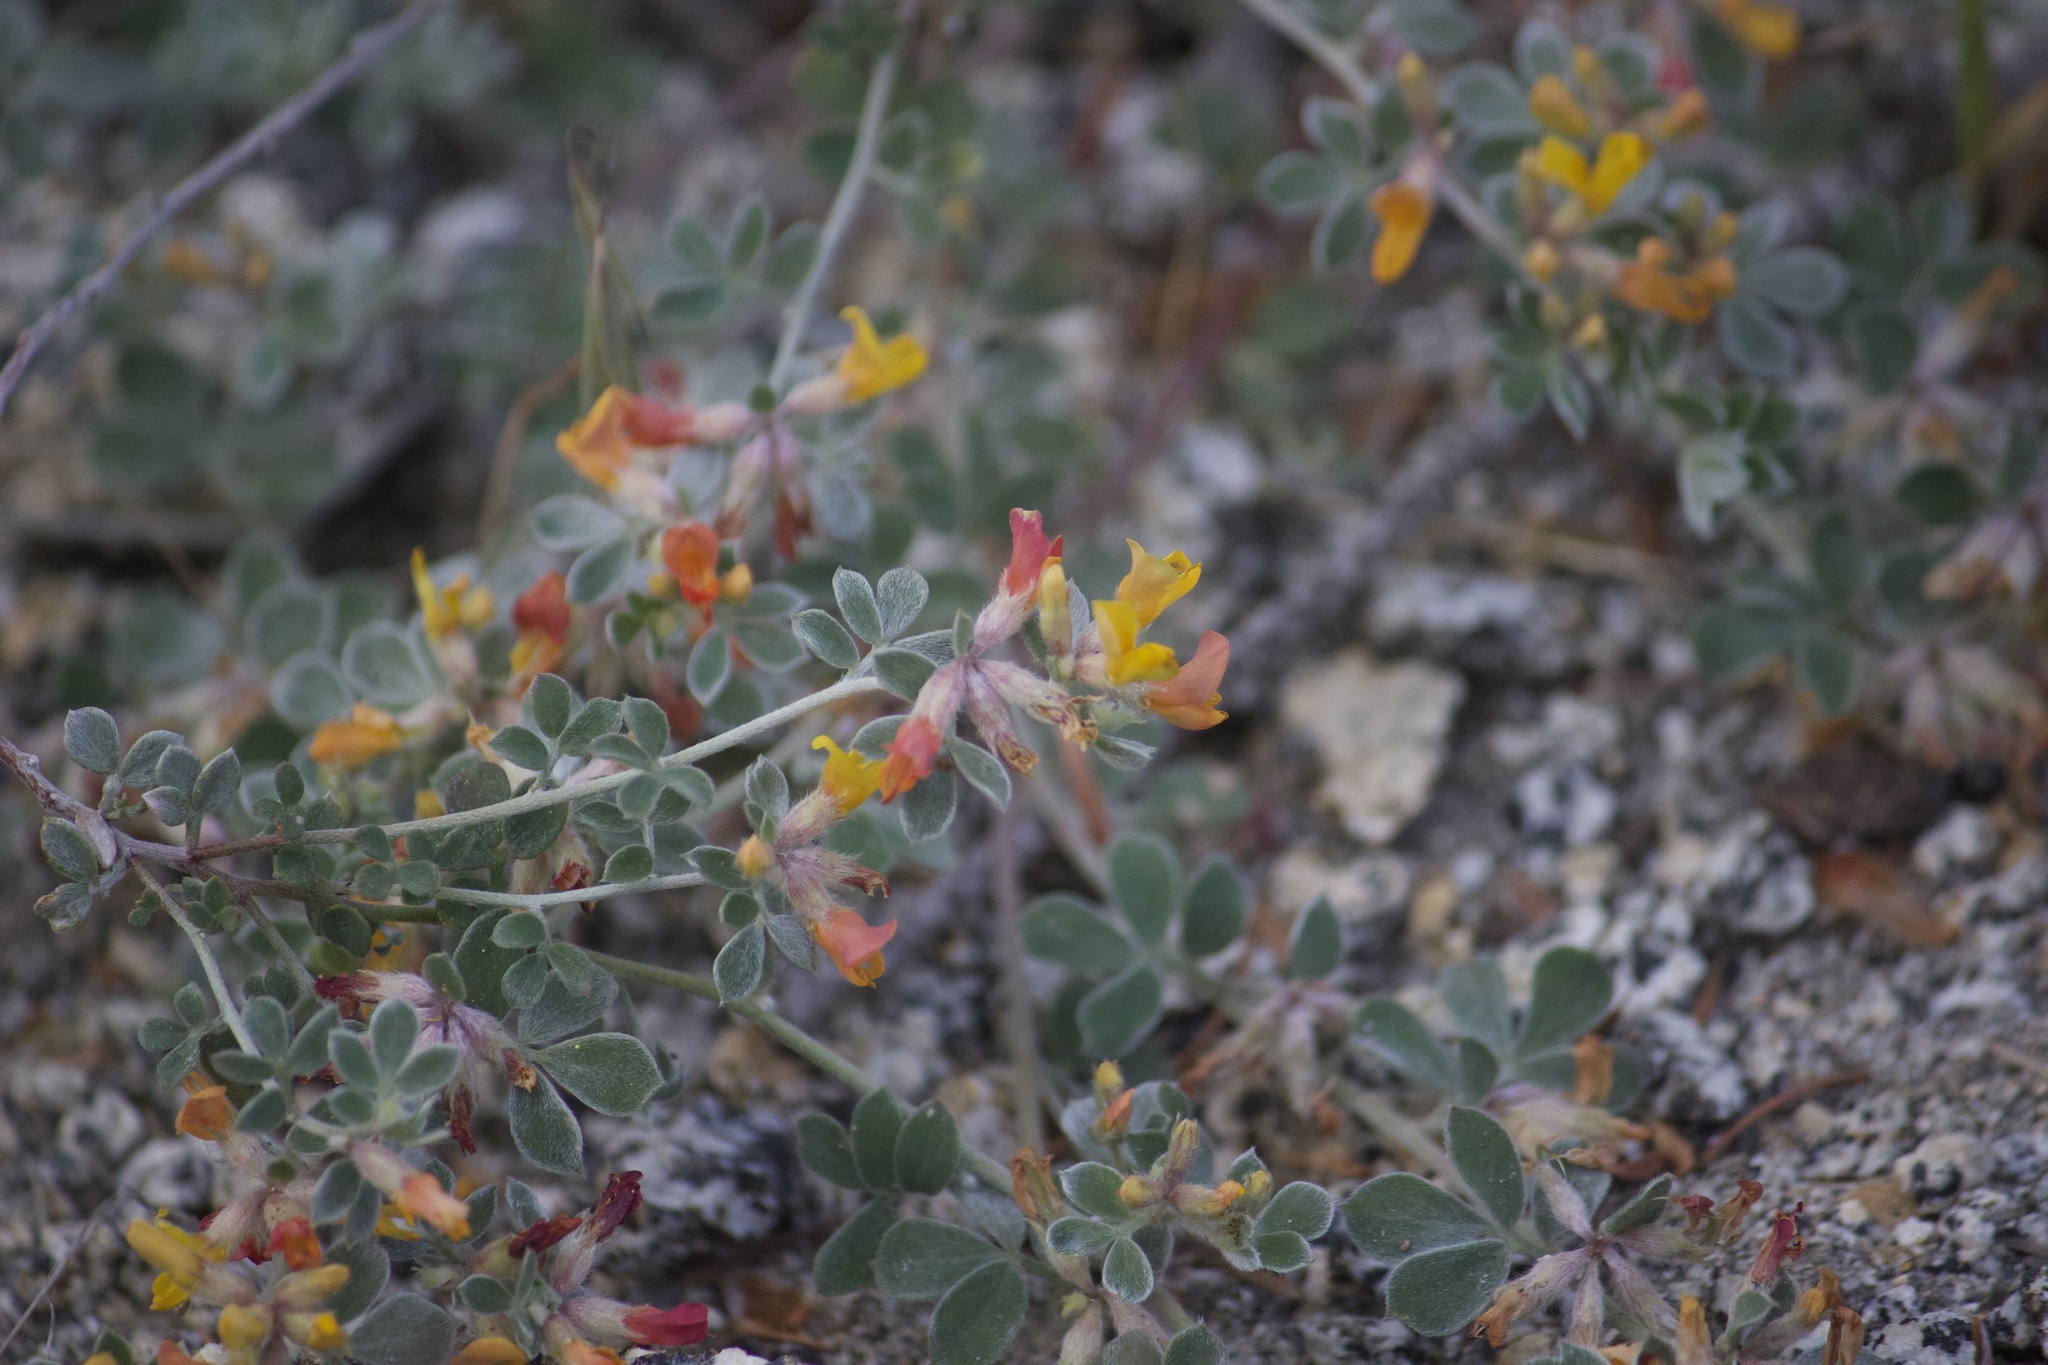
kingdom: Plantae
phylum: Tracheophyta
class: Magnoliopsida
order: Fabales
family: Fabaceae
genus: Acmispon
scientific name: Acmispon argophyllus
